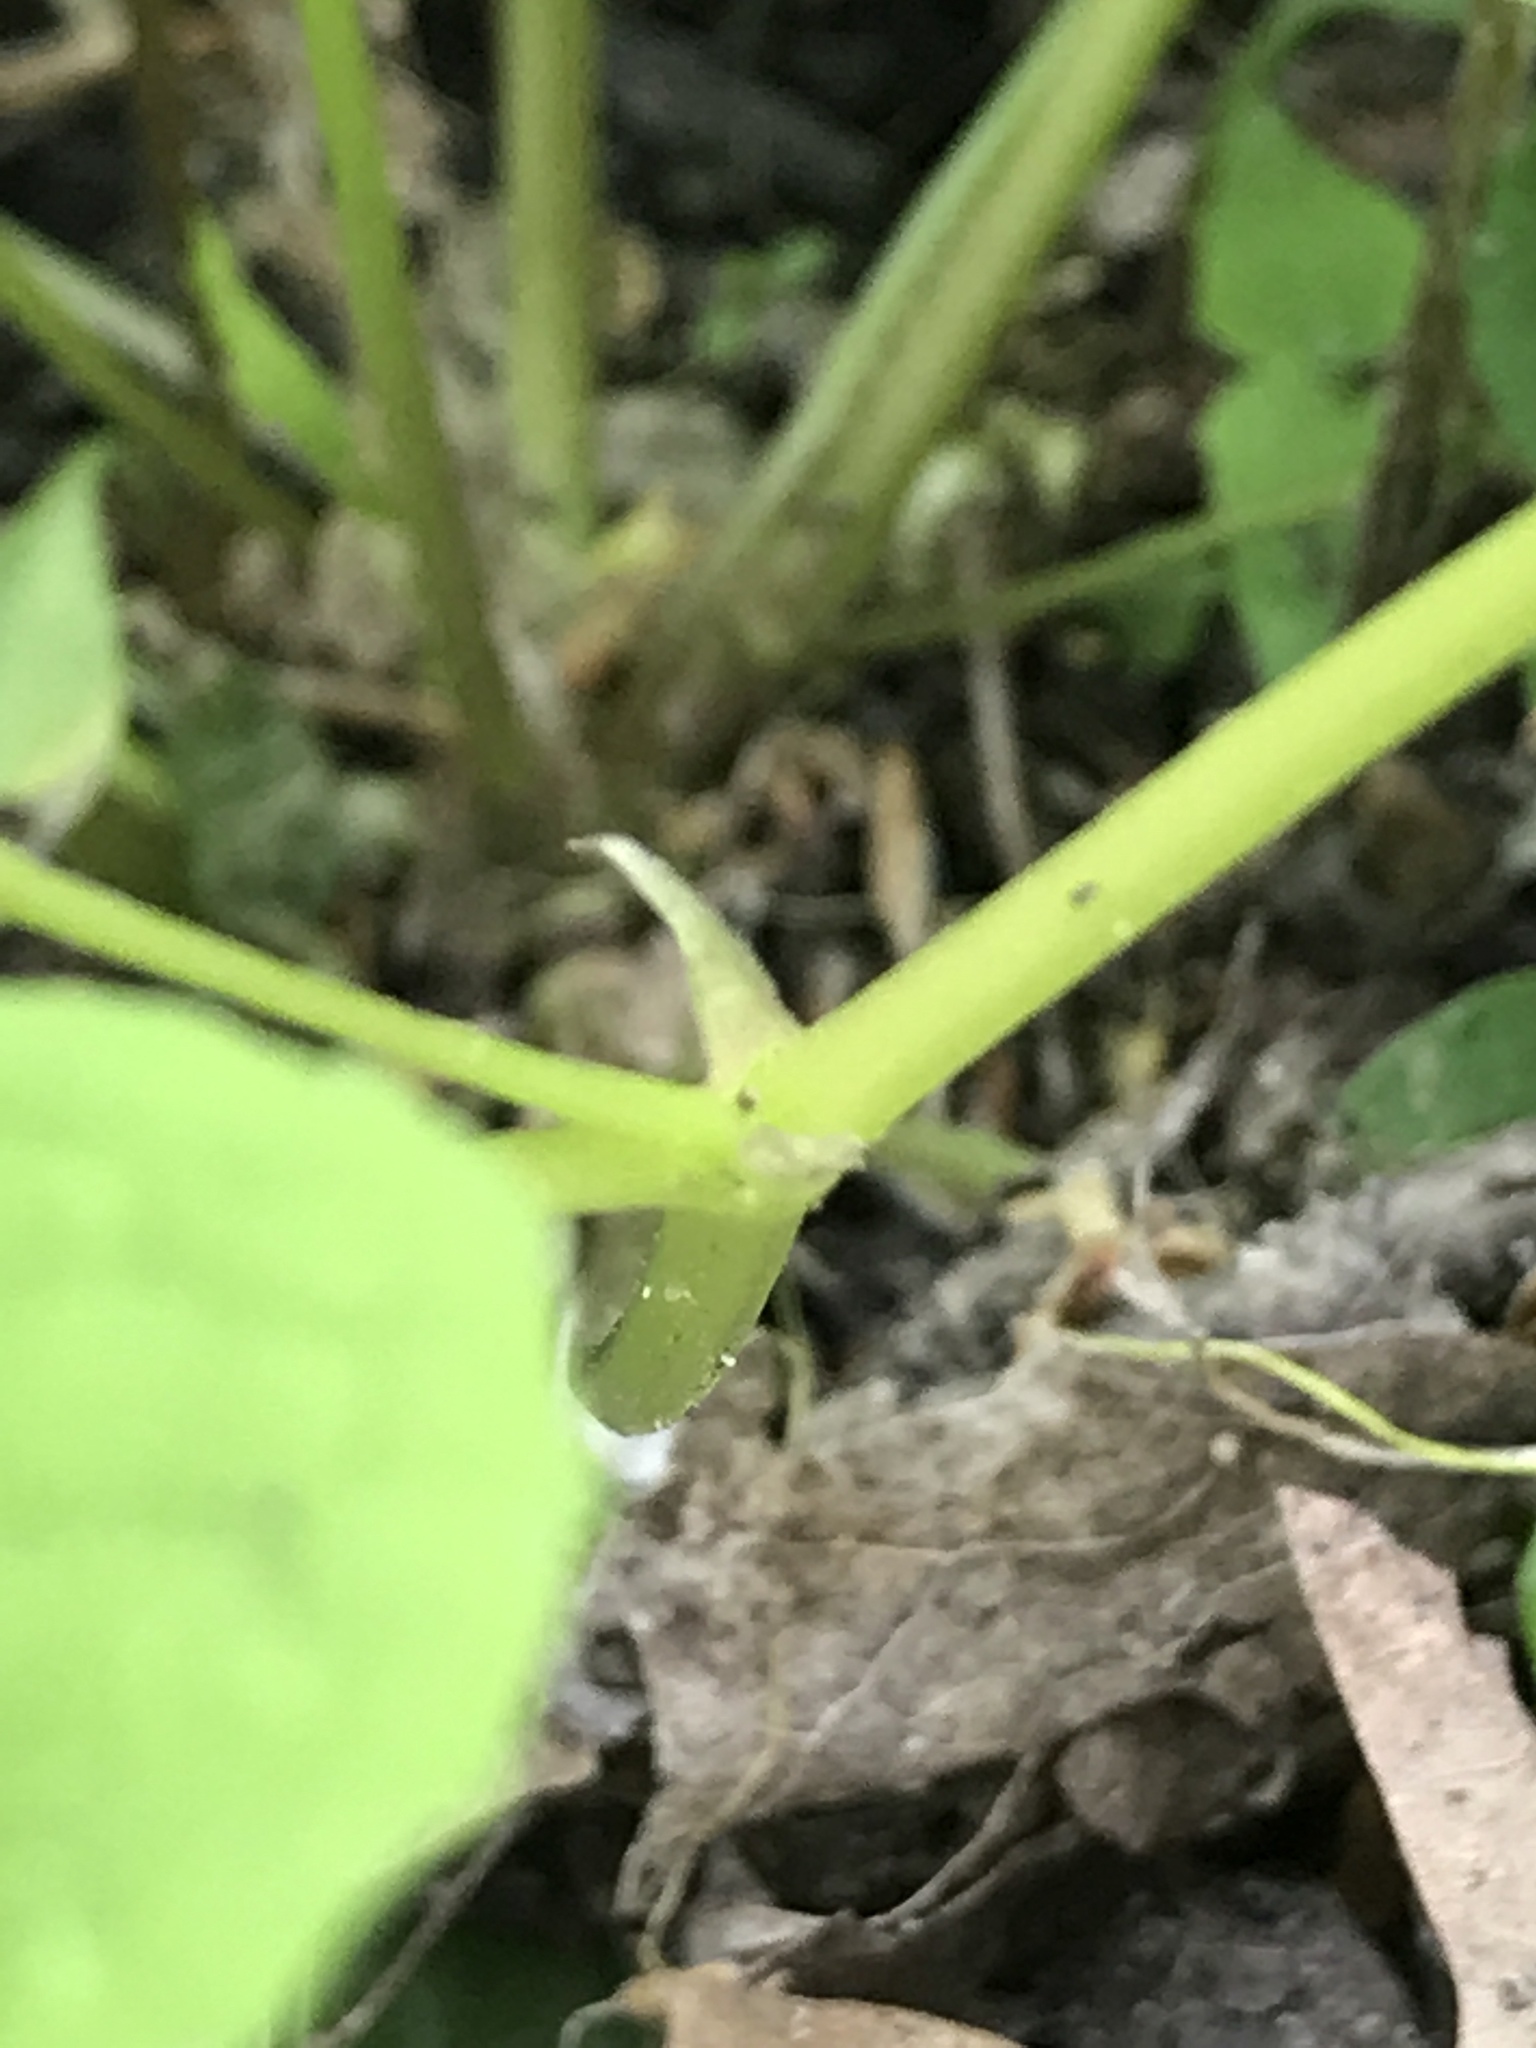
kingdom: Plantae
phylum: Tracheophyta
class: Magnoliopsida
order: Malpighiales
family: Violaceae
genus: Viola
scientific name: Viola canadensis
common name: Canada violet
